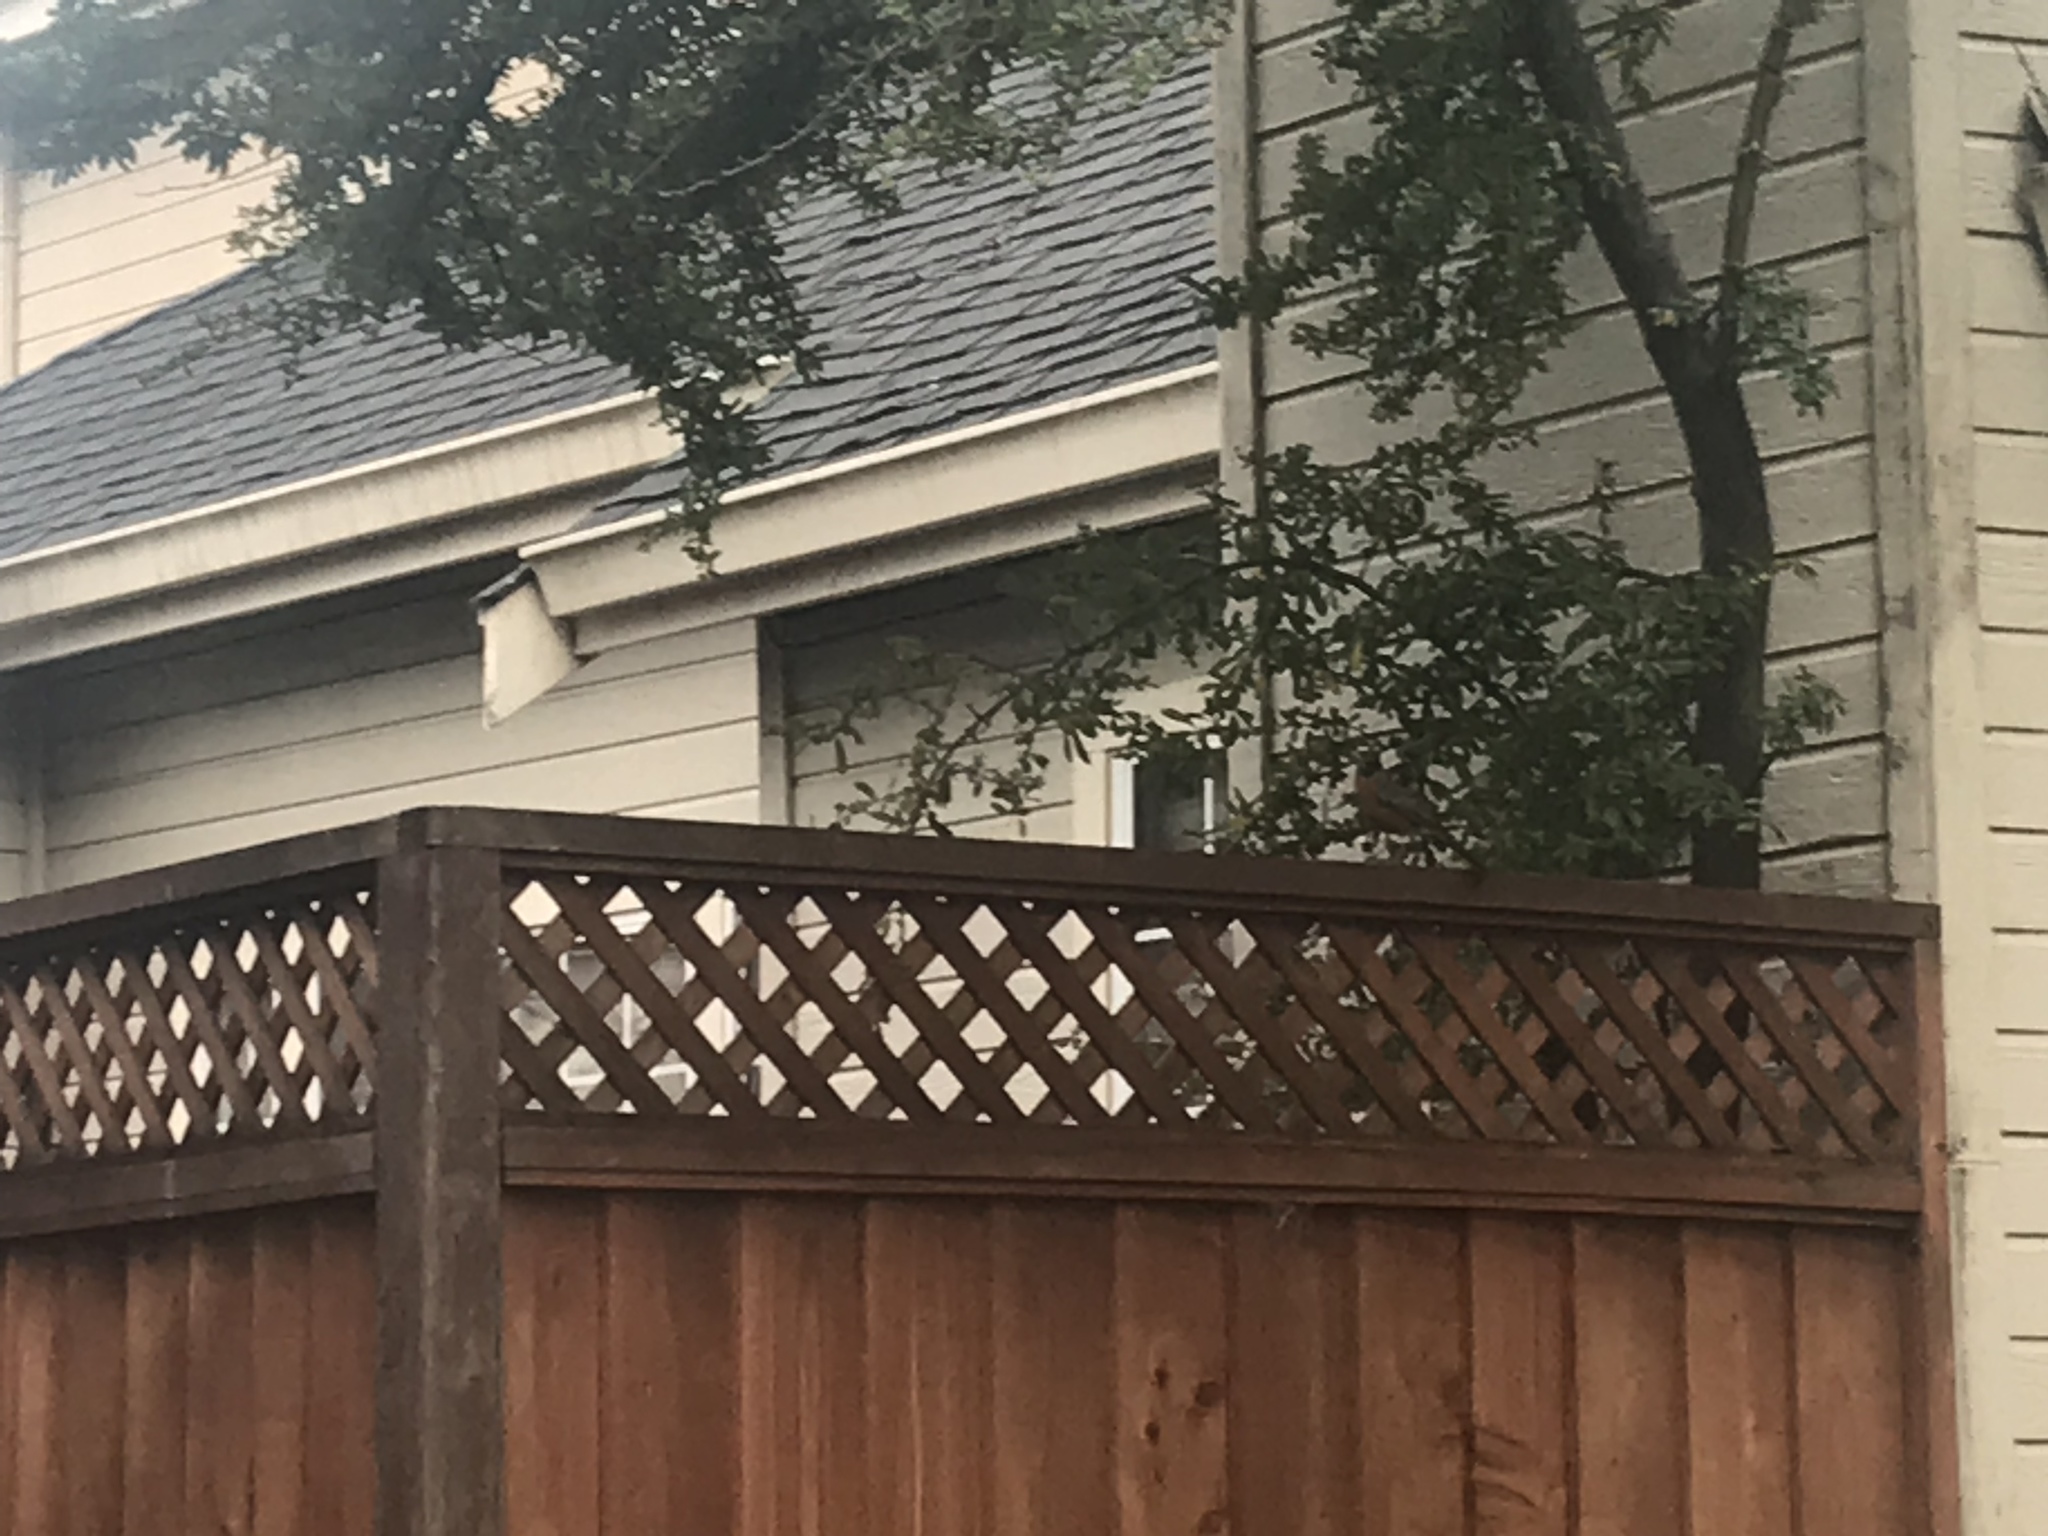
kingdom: Animalia
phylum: Chordata
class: Aves
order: Passeriformes
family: Turdidae
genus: Turdus
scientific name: Turdus migratorius
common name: American robin
